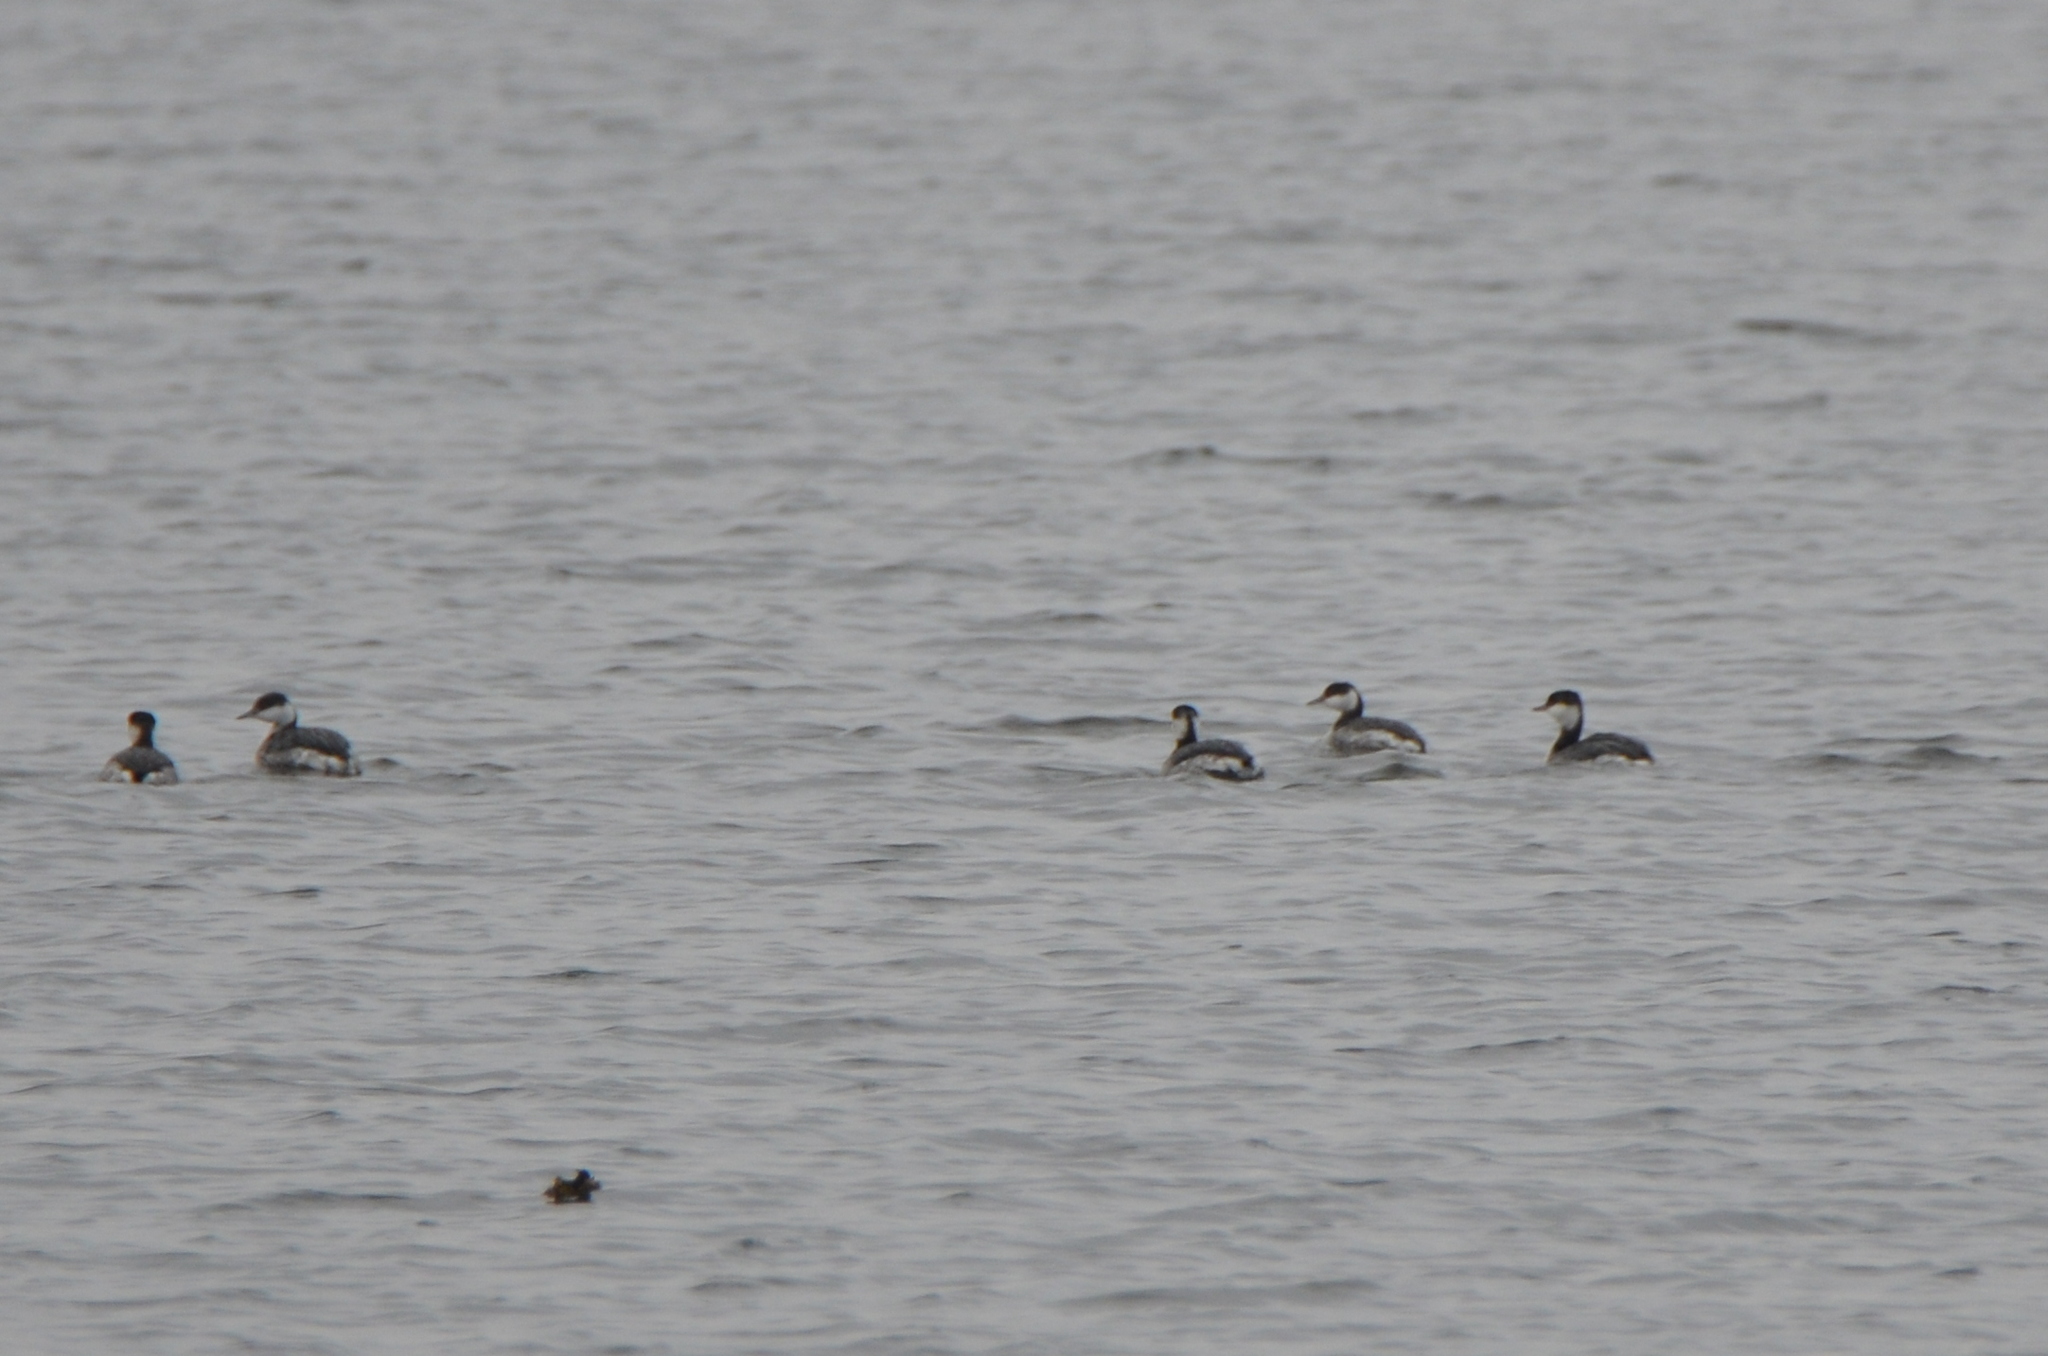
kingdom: Animalia
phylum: Chordata
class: Aves
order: Podicipediformes
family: Podicipedidae
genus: Podiceps
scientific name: Podiceps auritus
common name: Horned grebe
